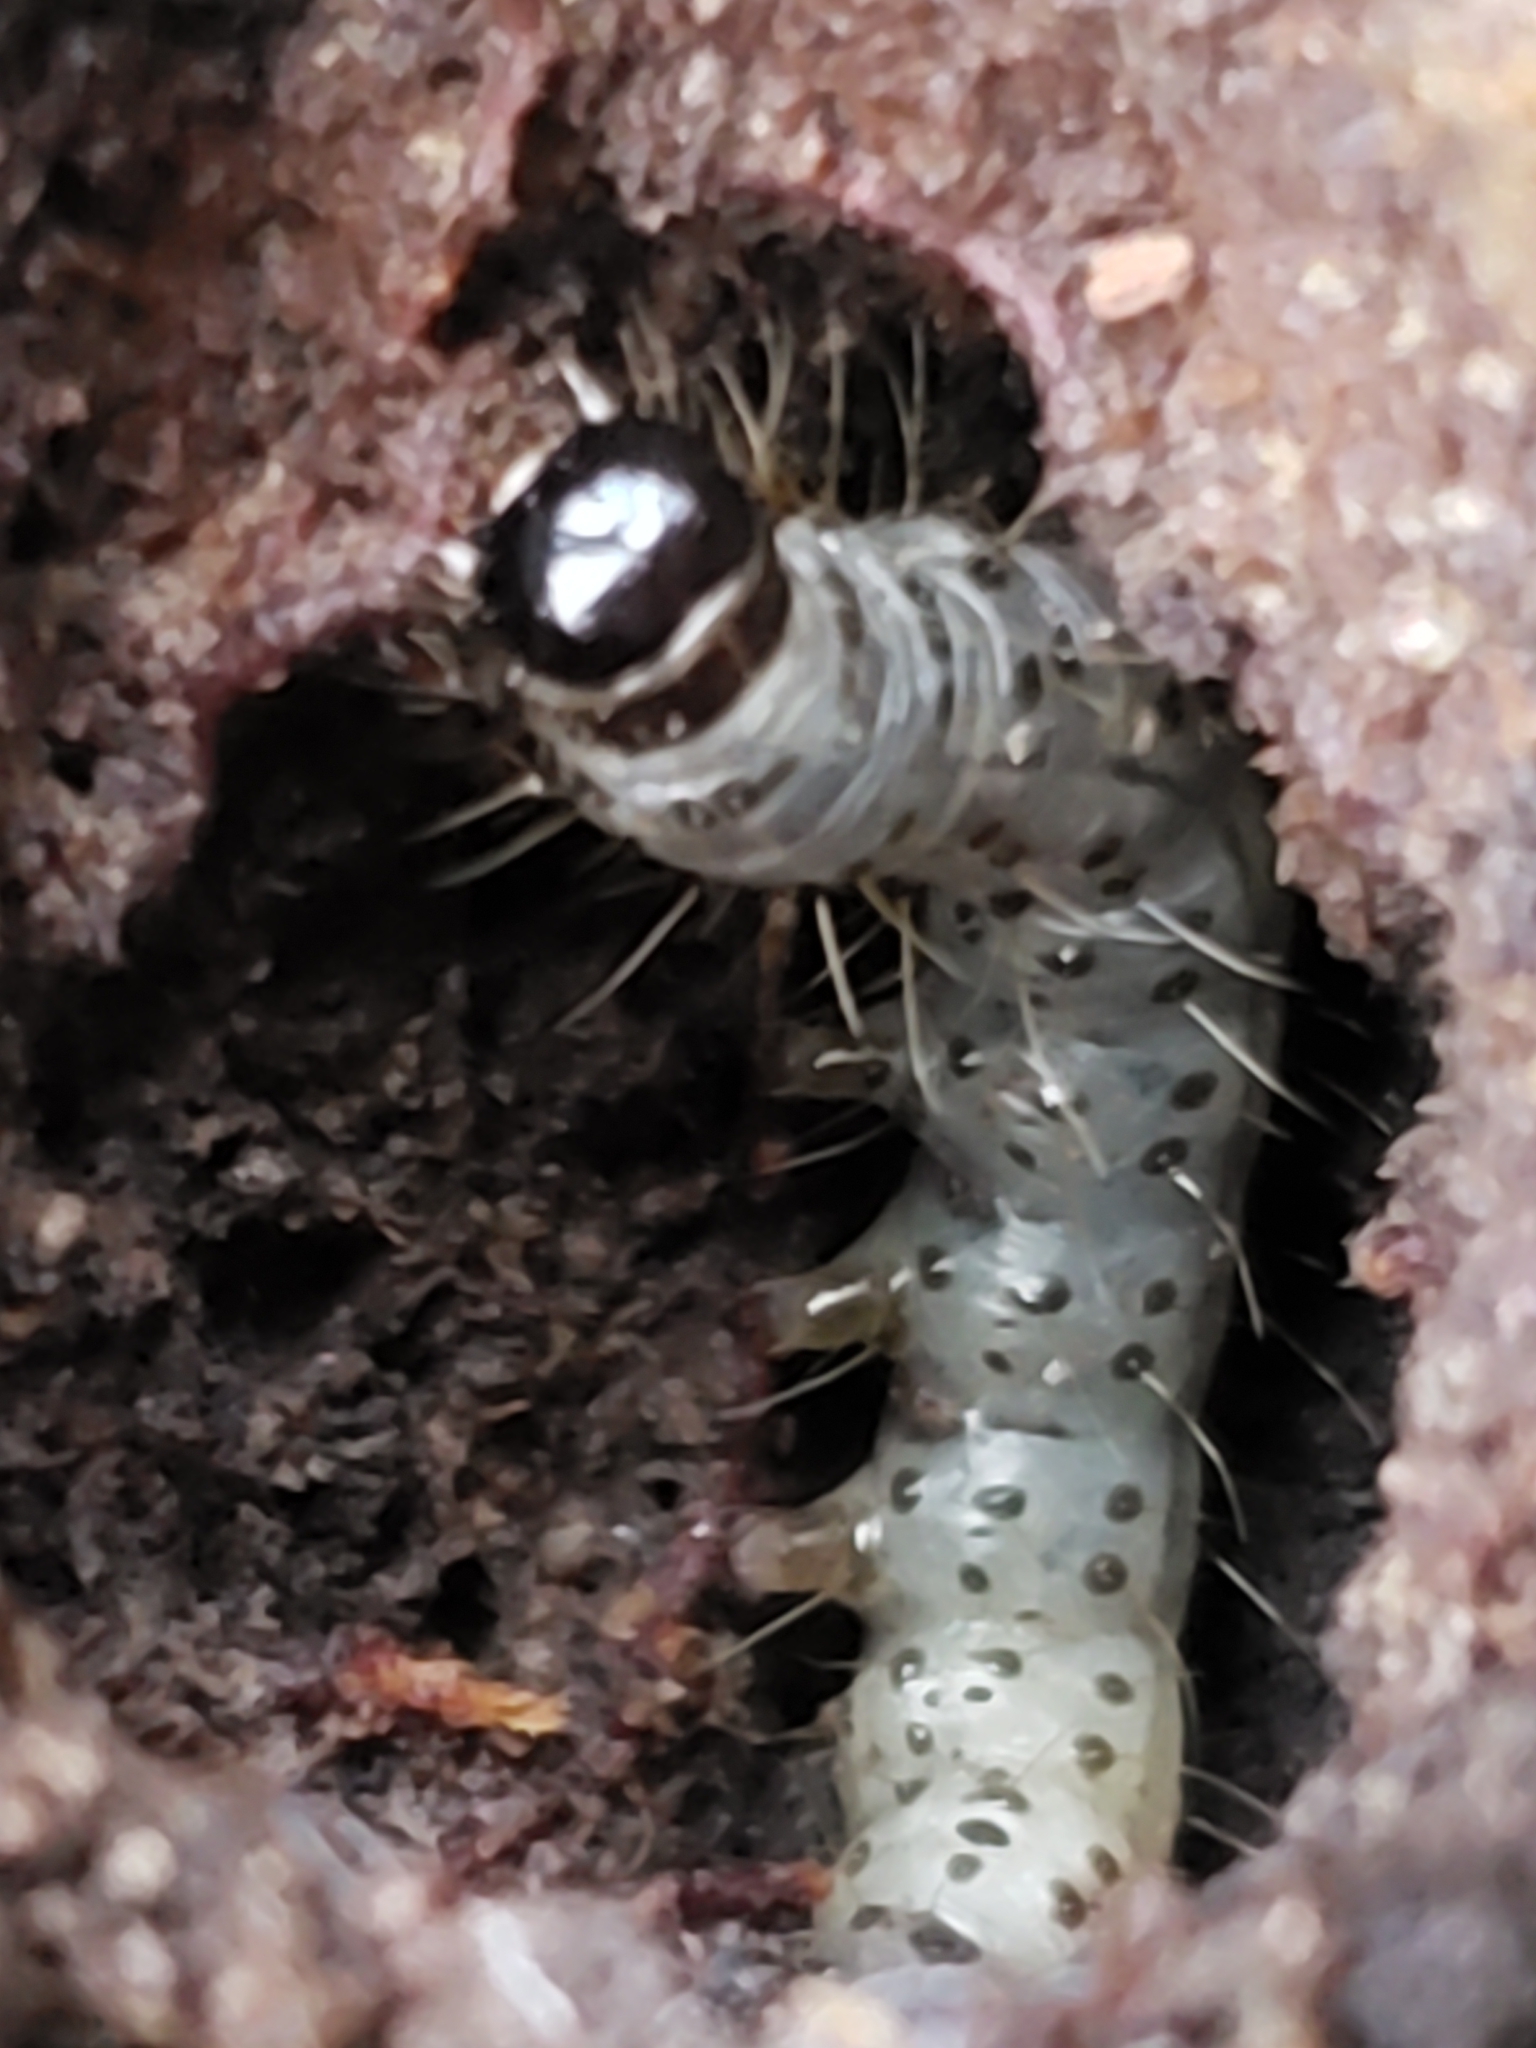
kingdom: Animalia
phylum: Arthropoda
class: Insecta
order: Lepidoptera
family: Erebidae
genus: Scolecocampa
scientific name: Scolecocampa liburna
